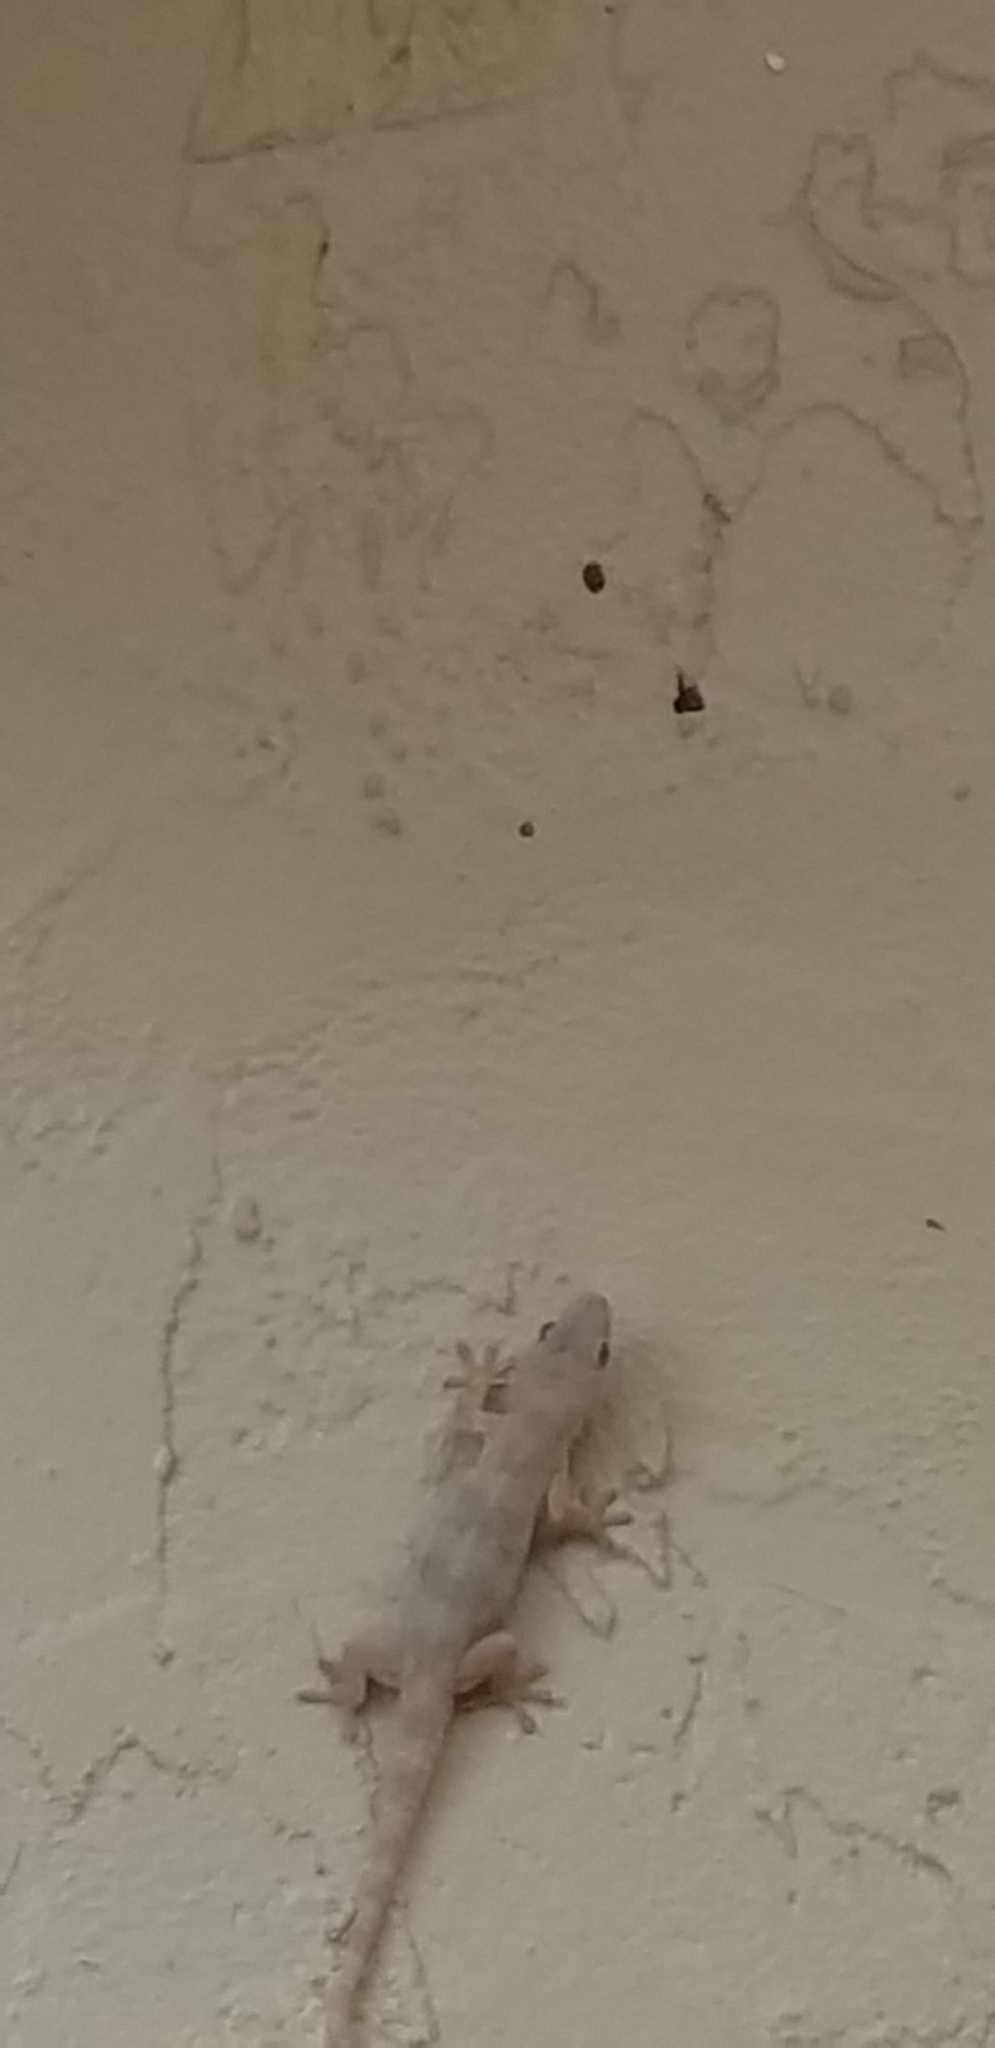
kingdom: Animalia
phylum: Chordata
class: Squamata
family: Gekkonidae
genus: Hemidactylus
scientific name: Hemidactylus mabouia
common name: House gecko
